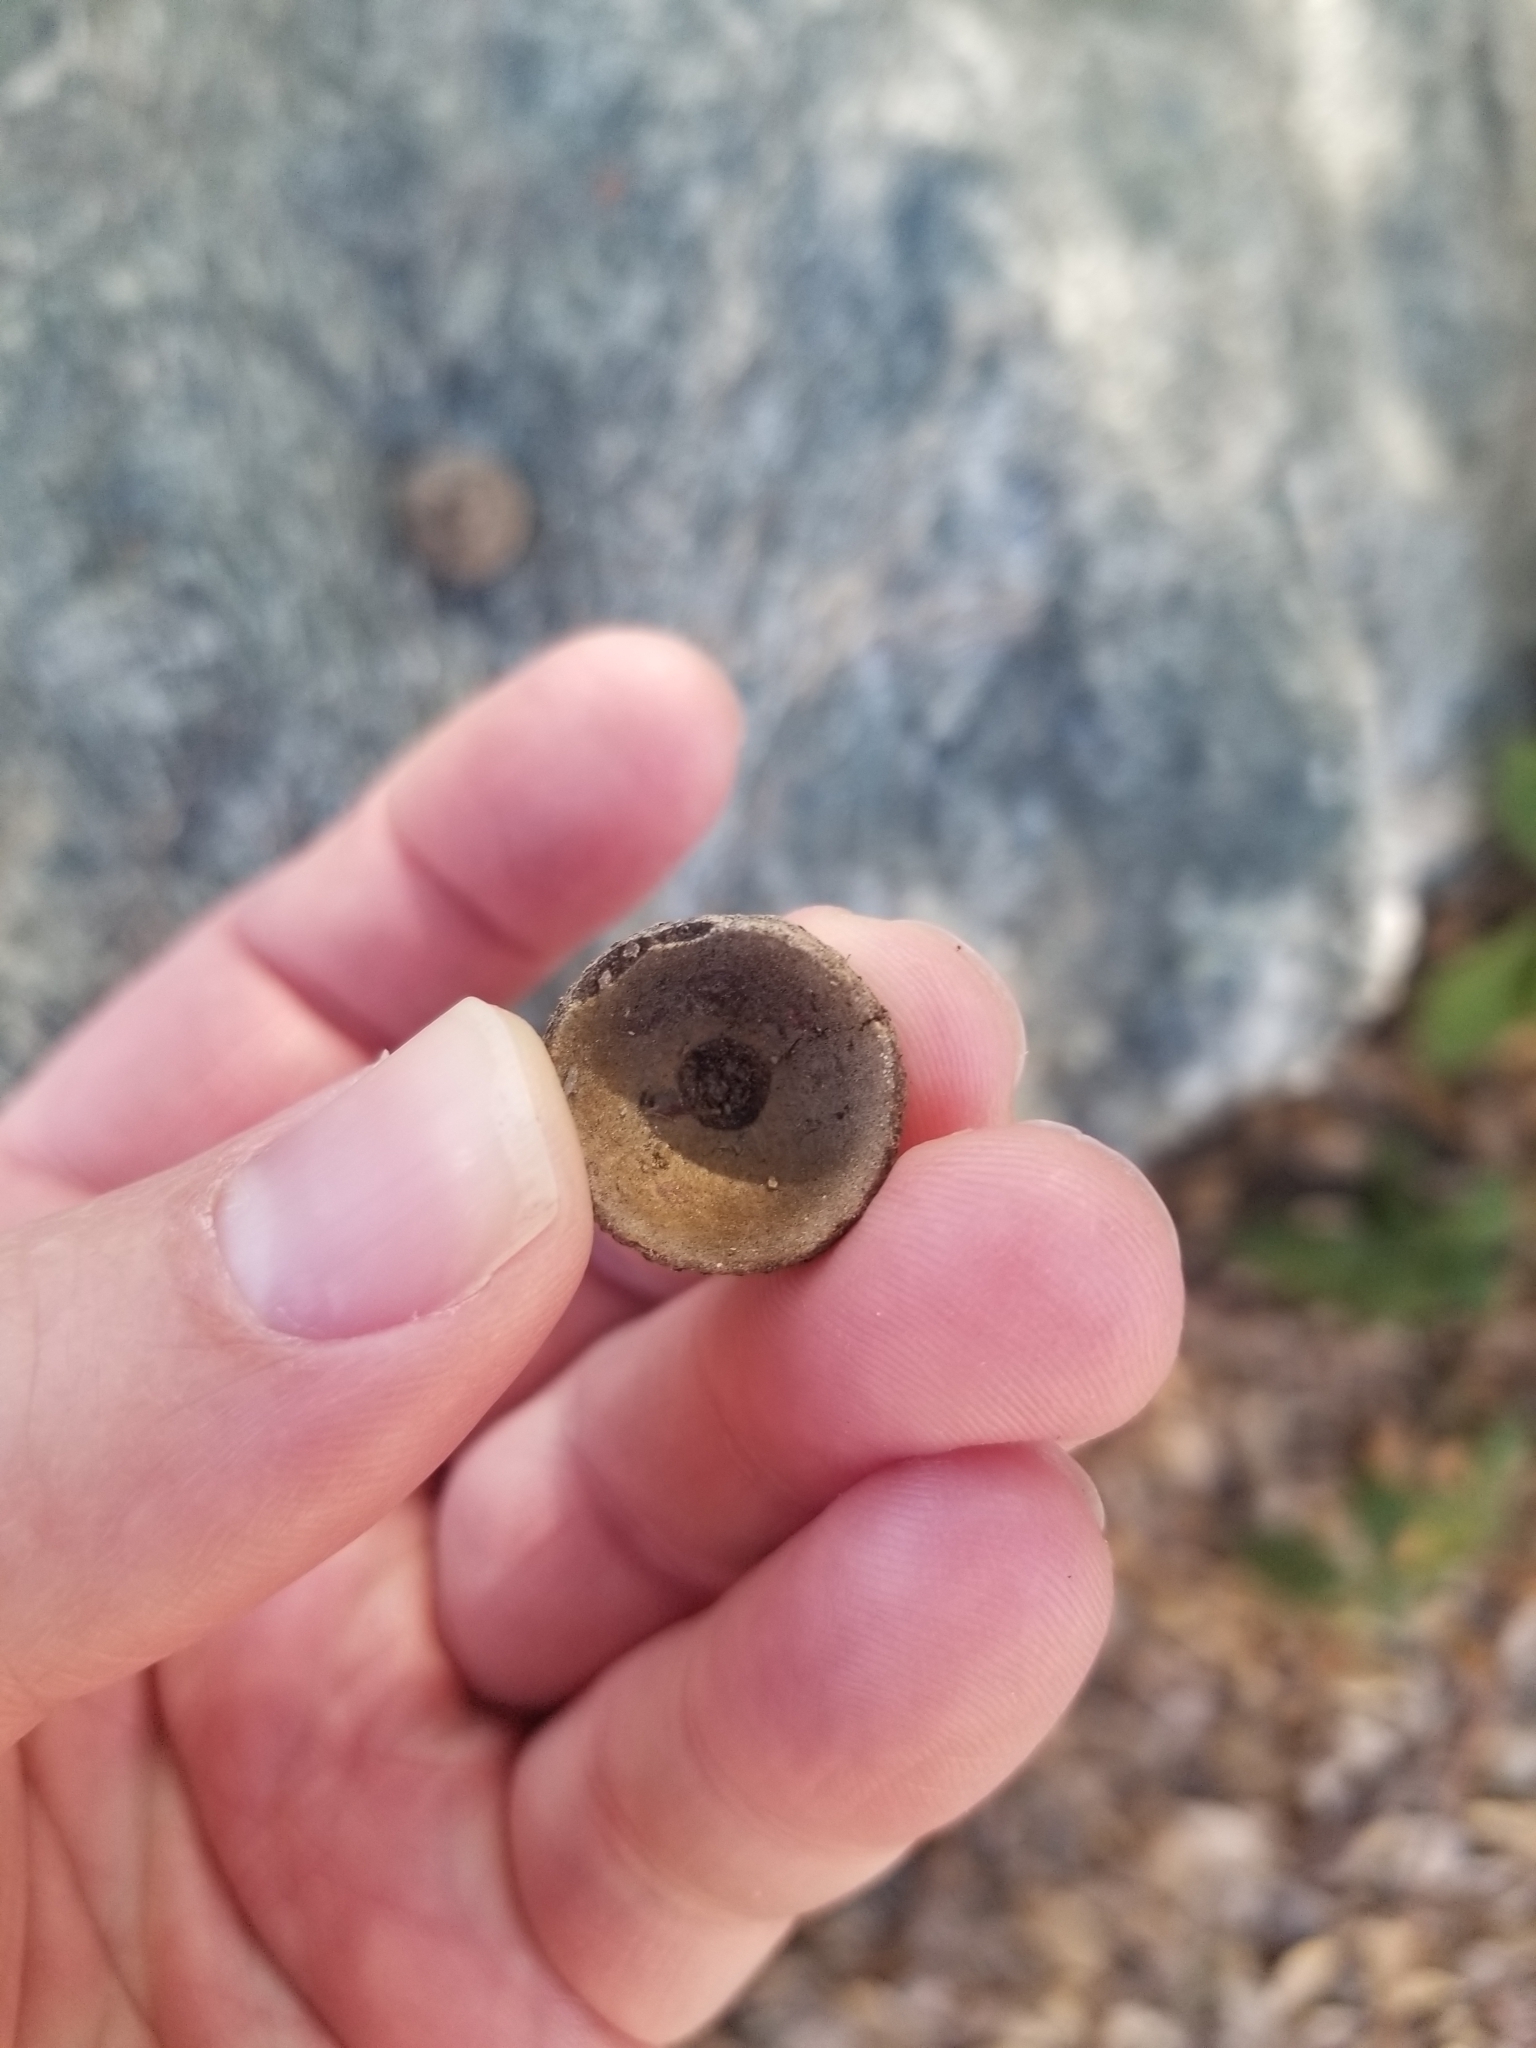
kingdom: Plantae
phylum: Tracheophyta
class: Magnoliopsida
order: Fagales
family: Fagaceae
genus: Quercus
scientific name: Quercus chrysolepis
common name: Canyon live oak
